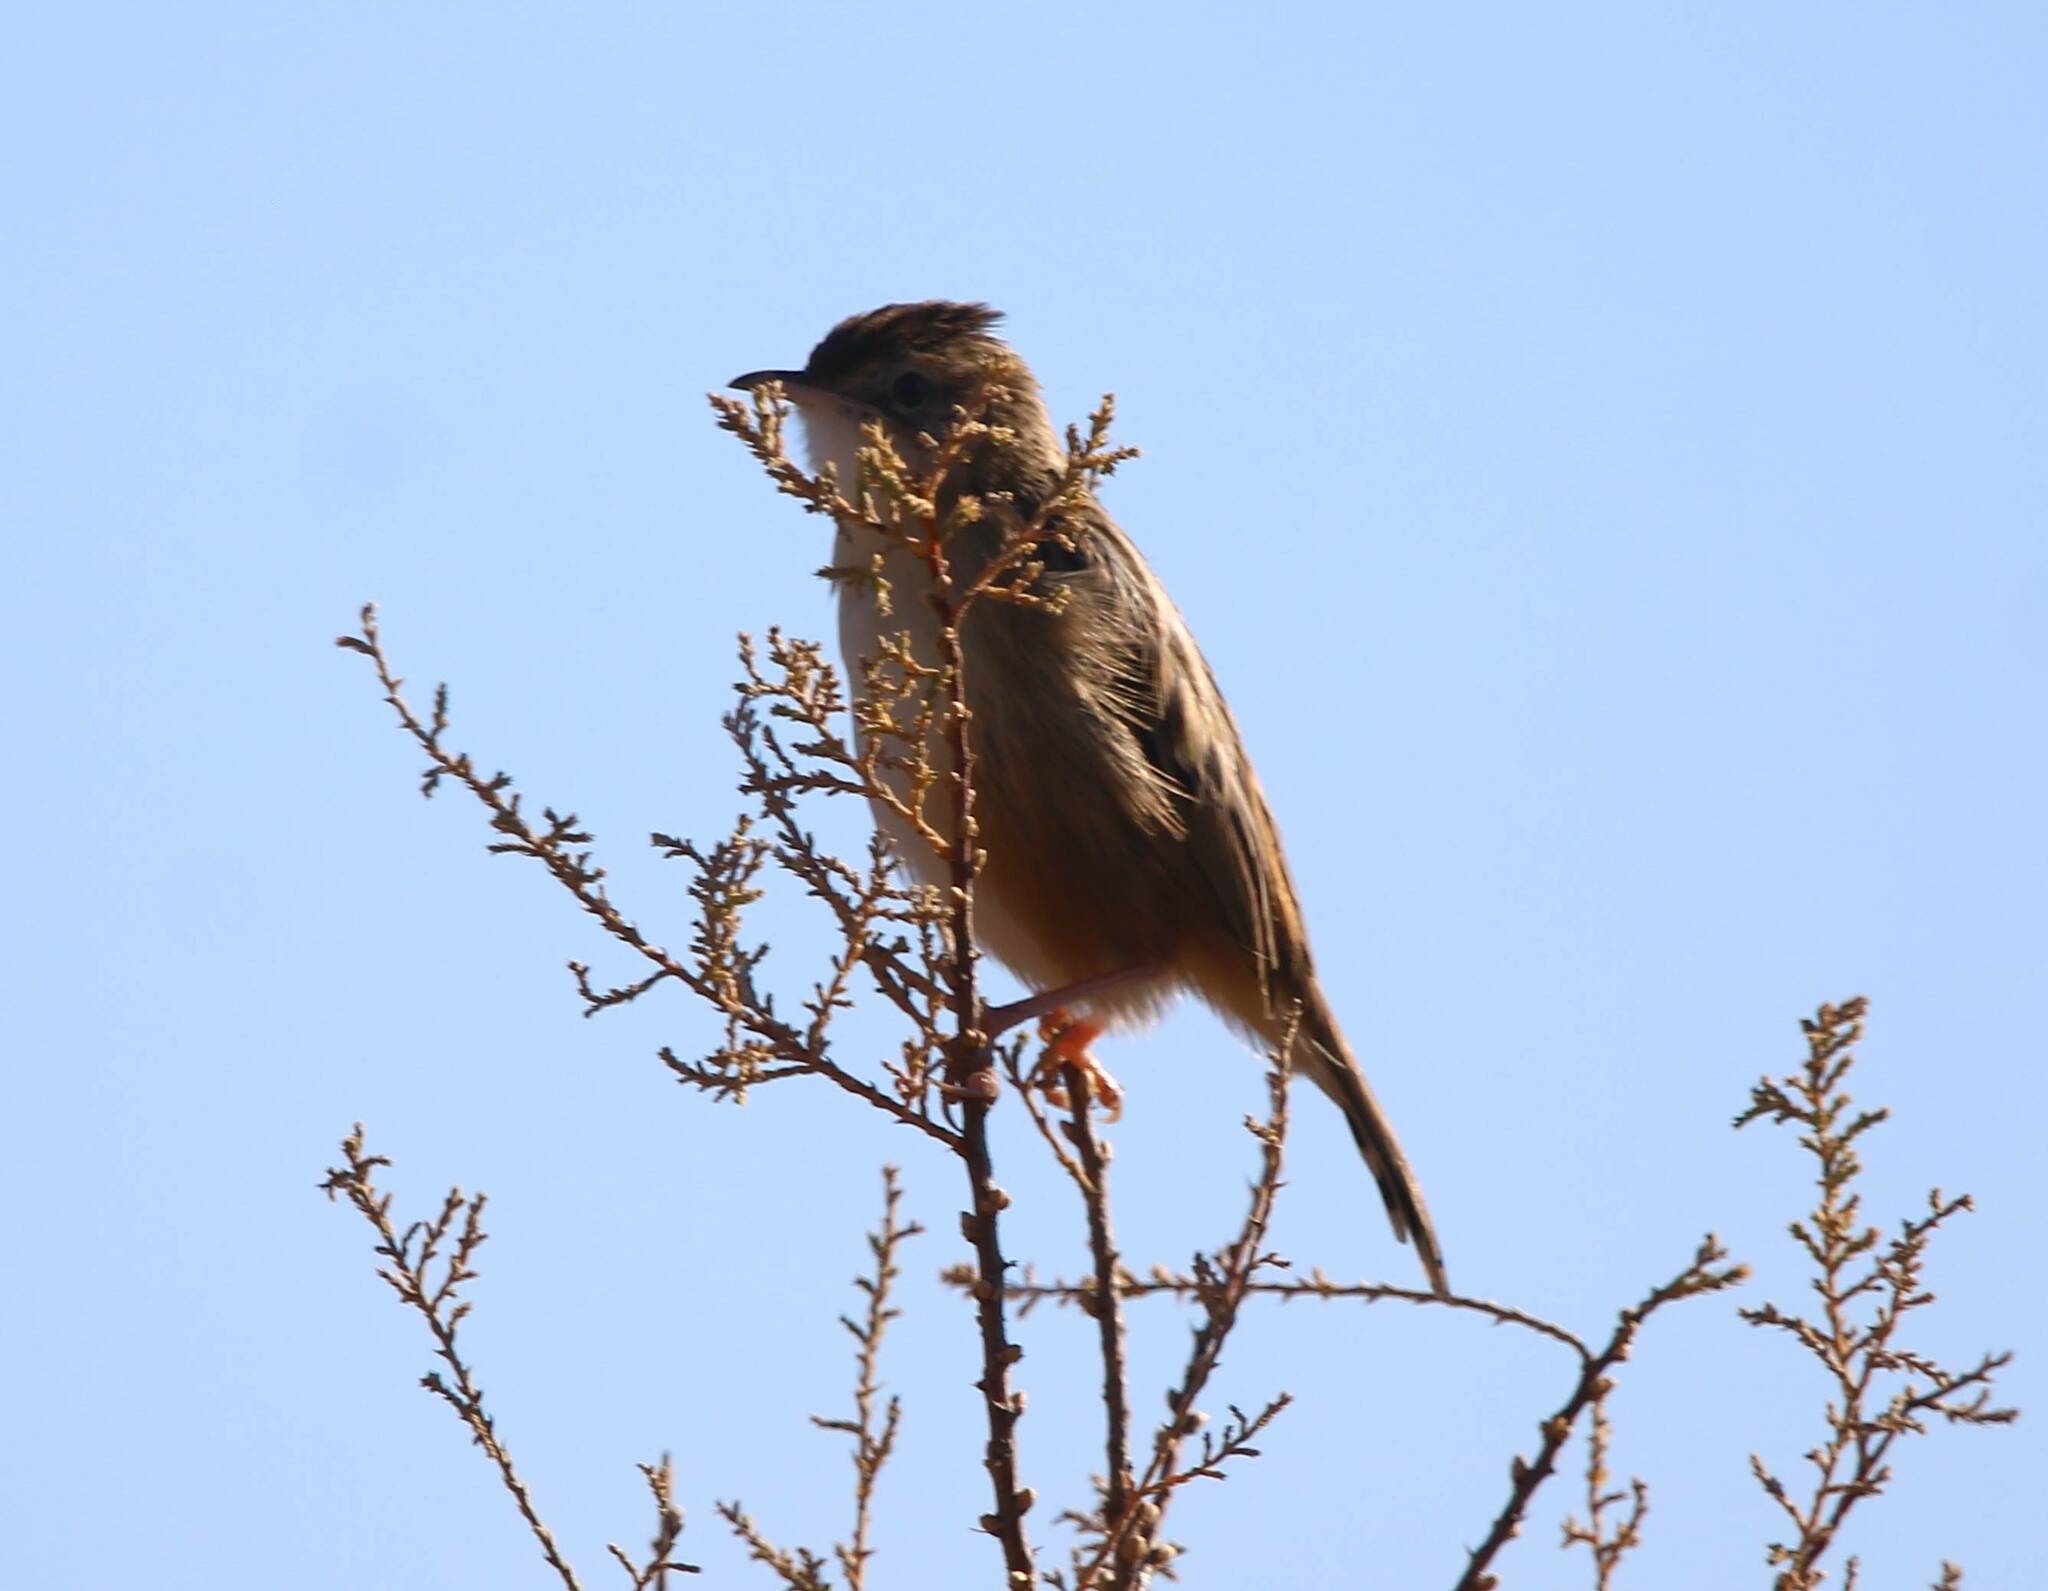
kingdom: Animalia
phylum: Chordata
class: Aves
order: Passeriformes
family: Cisticolidae
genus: Cisticola
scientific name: Cisticola juncidis
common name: Zitting cisticola
